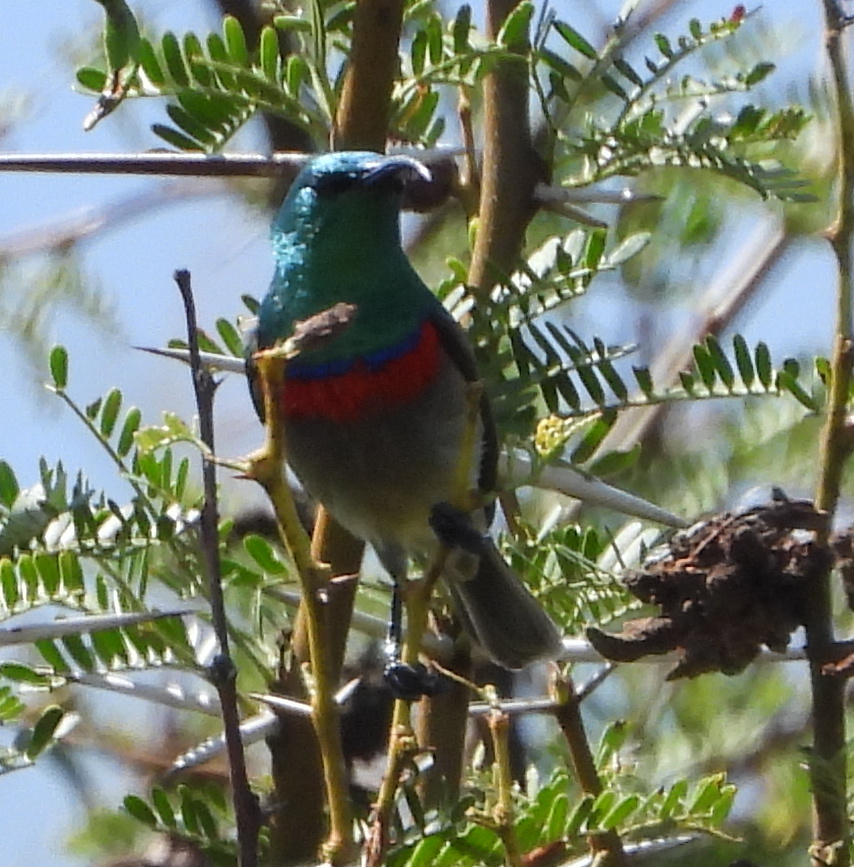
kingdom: Animalia
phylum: Chordata
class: Aves
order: Passeriformes
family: Nectariniidae
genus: Cinnyris
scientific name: Cinnyris chalybeus
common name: Southern double-collared sunbird
